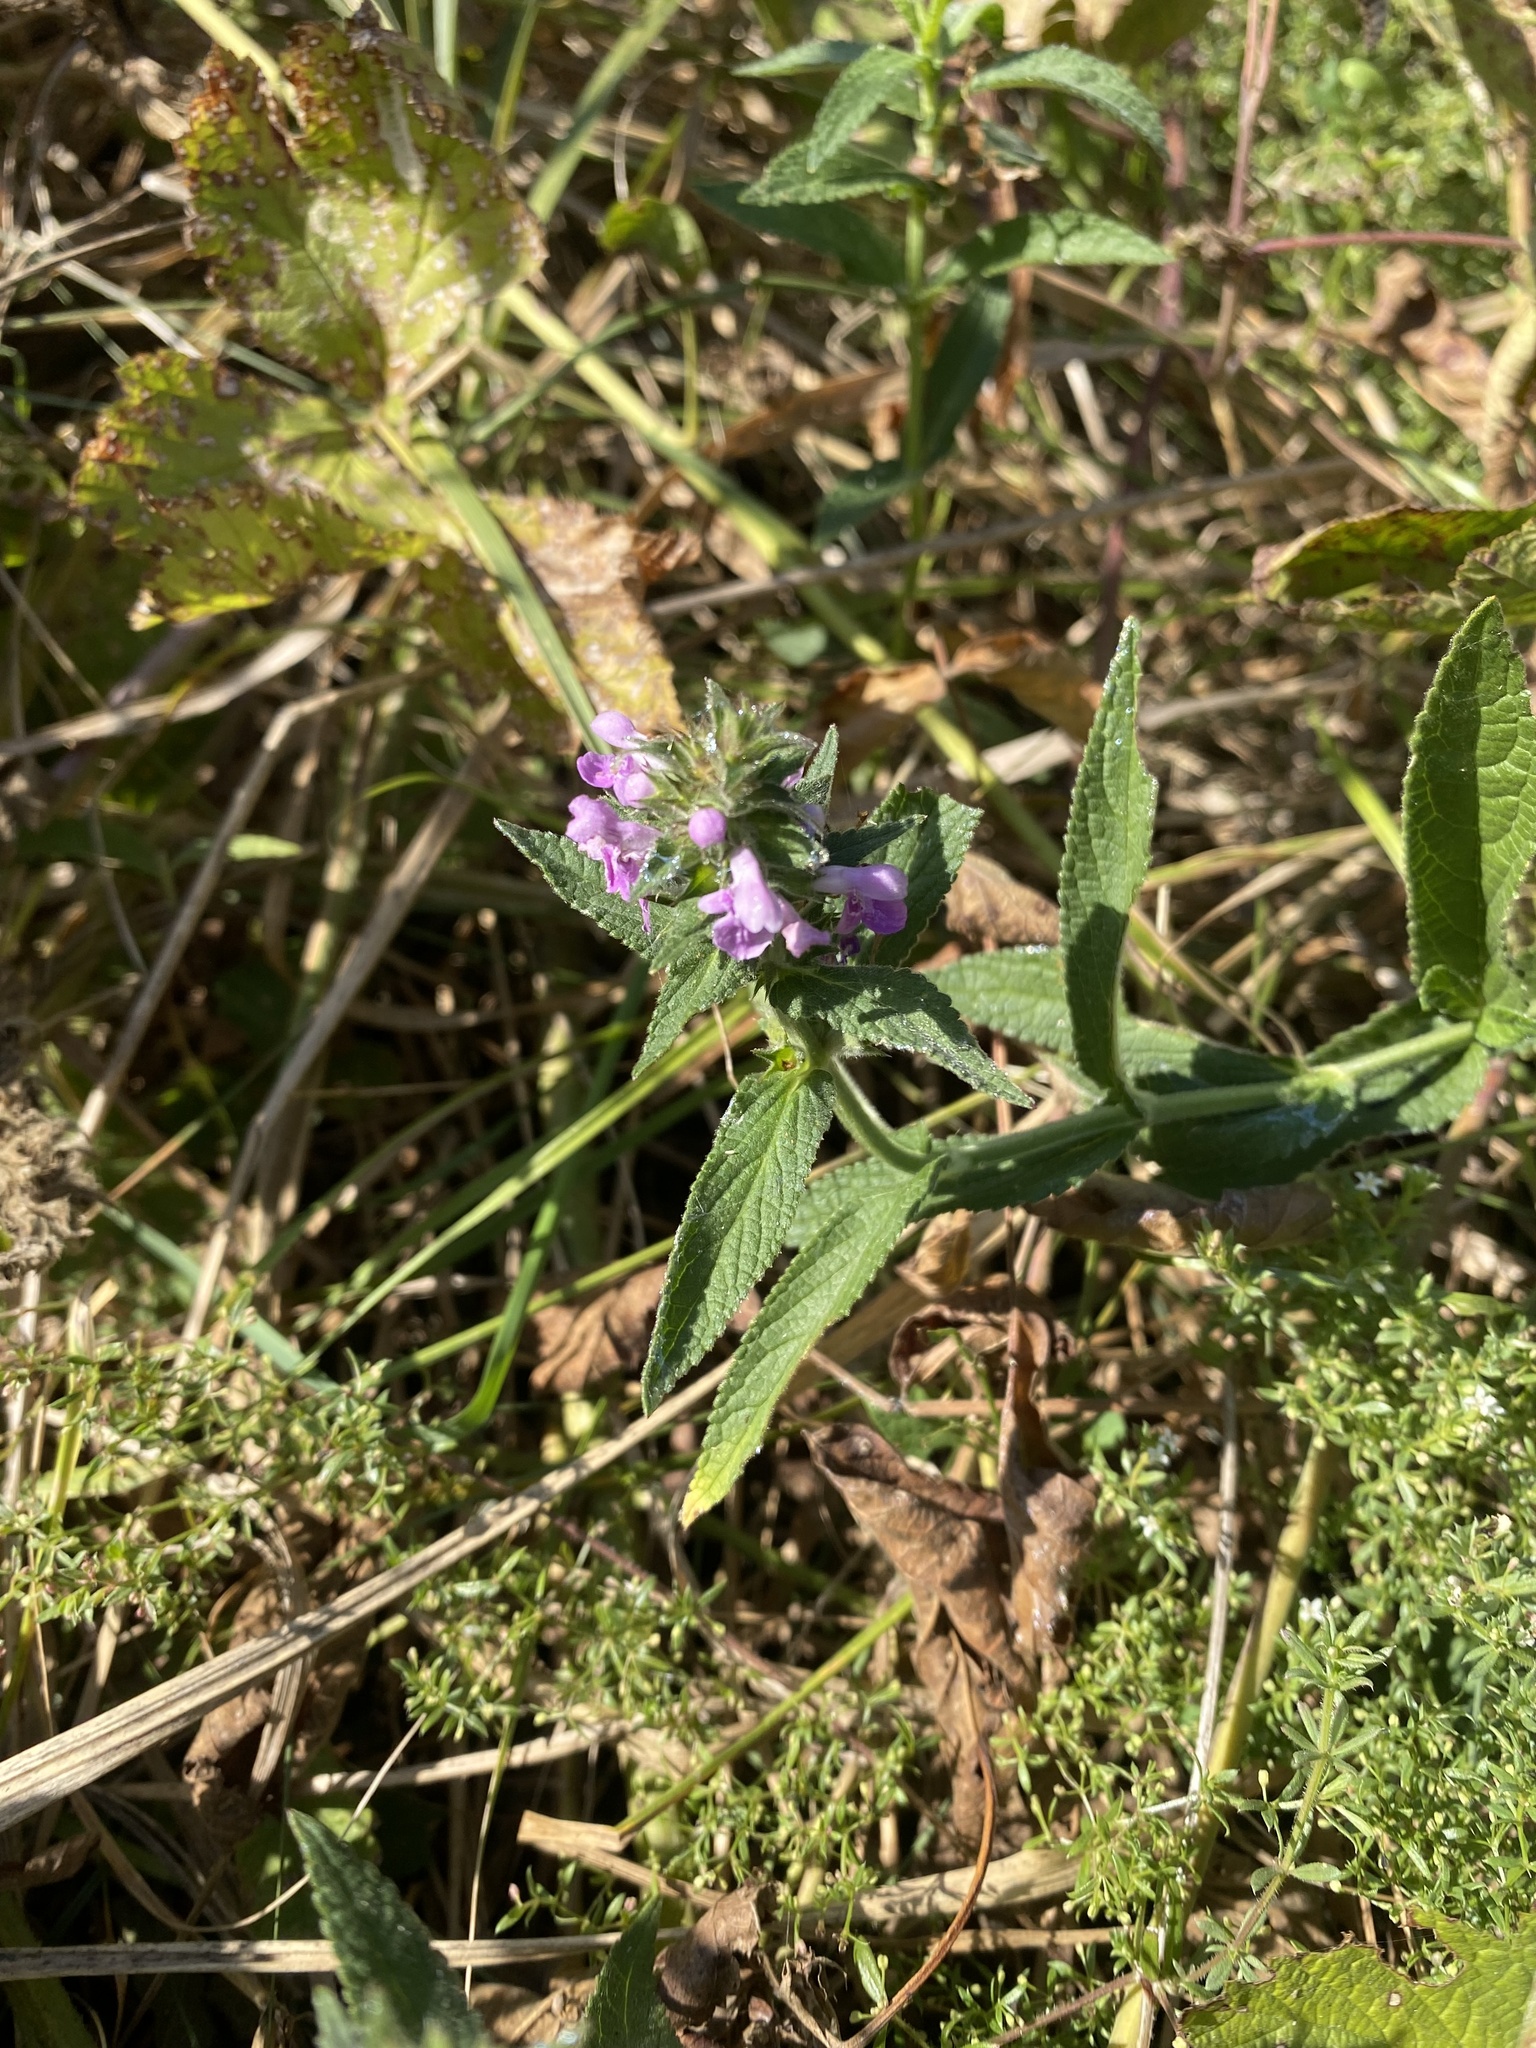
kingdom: Plantae
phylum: Tracheophyta
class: Magnoliopsida
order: Lamiales
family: Lamiaceae
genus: Stachys
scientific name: Stachys palustris
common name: Marsh woundwort
